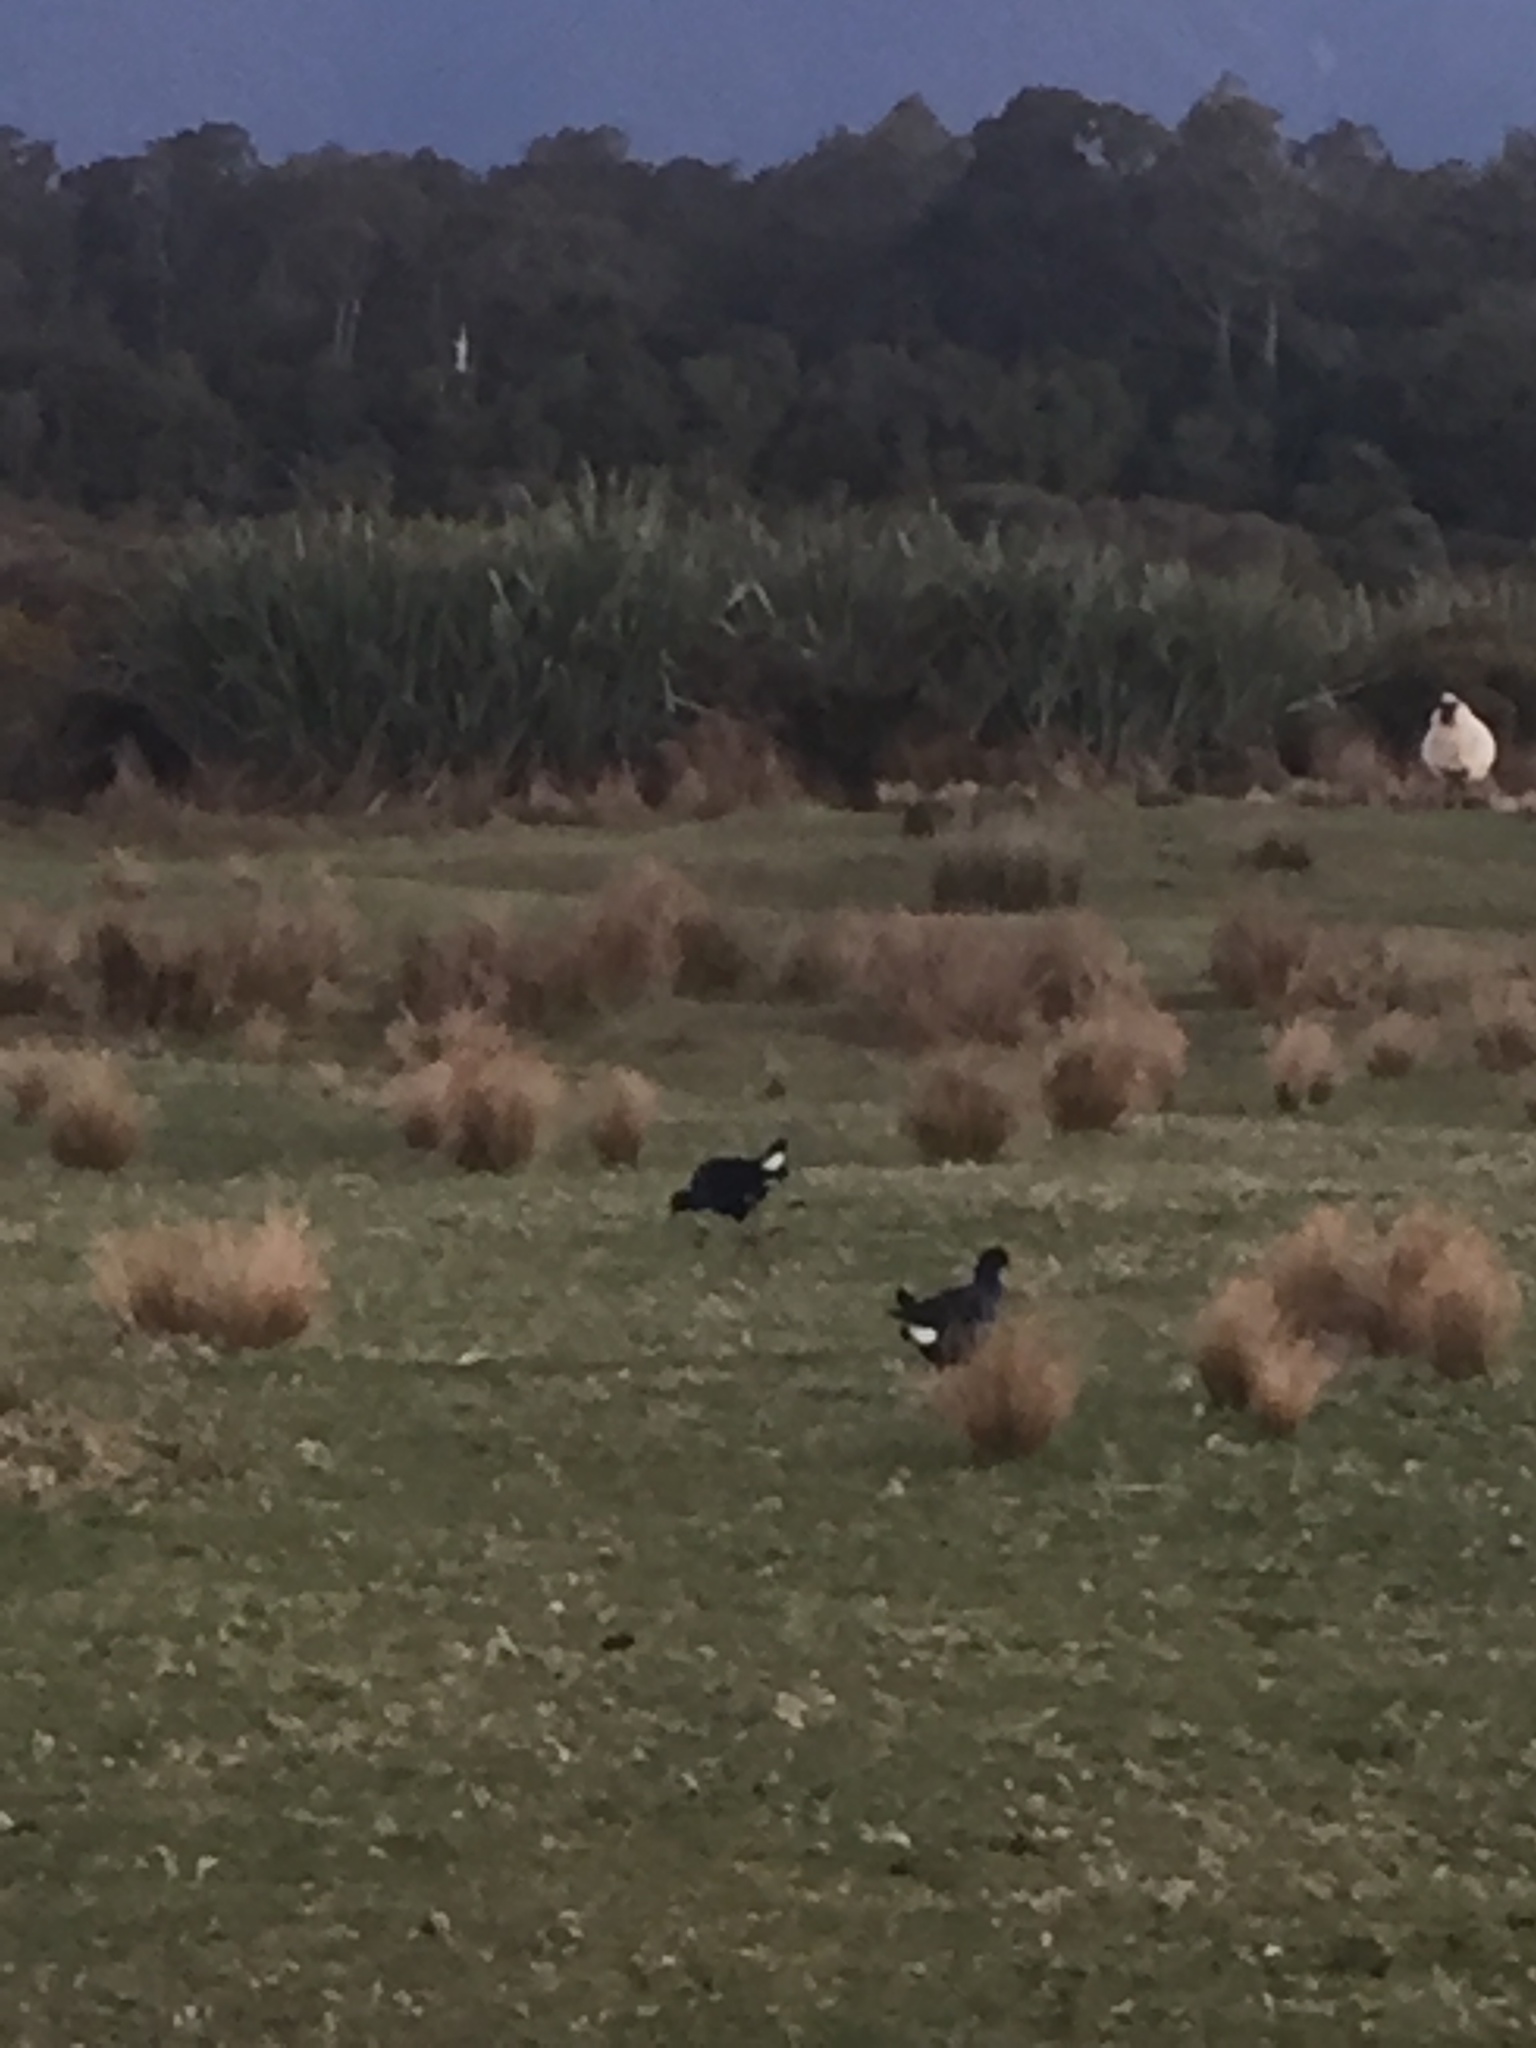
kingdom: Animalia
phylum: Chordata
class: Aves
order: Gruiformes
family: Rallidae
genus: Porphyrio
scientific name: Porphyrio melanotus
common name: Australasian swamphen
